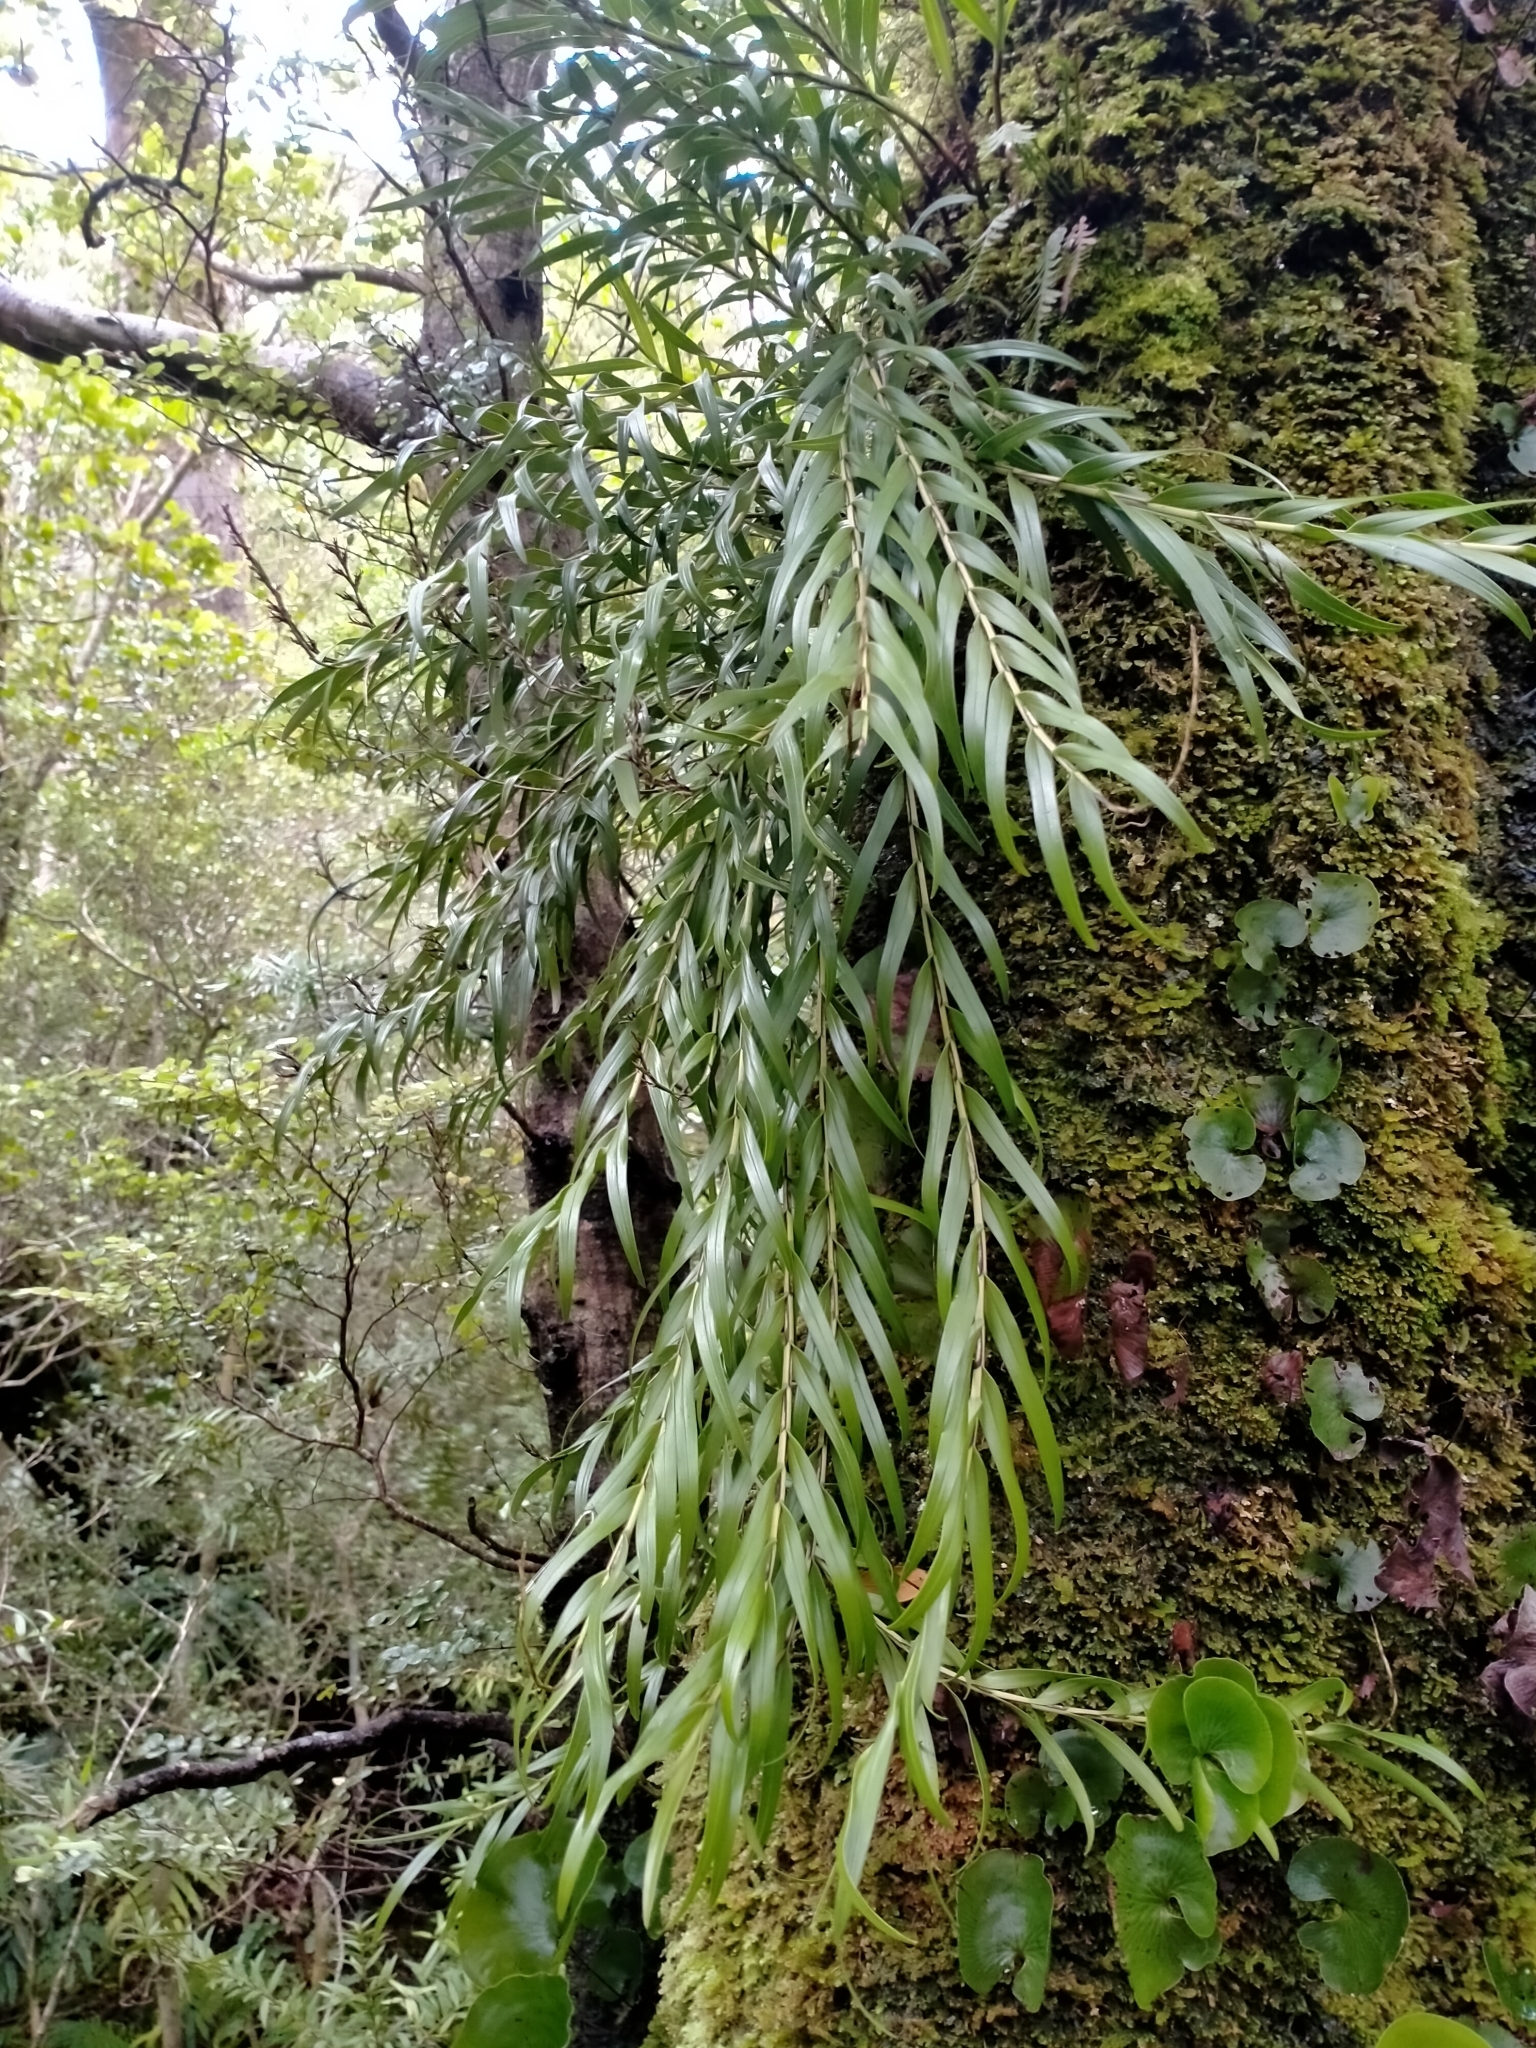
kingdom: Plantae
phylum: Tracheophyta
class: Liliopsida
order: Asparagales
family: Orchidaceae
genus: Earina
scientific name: Earina autumnalis
